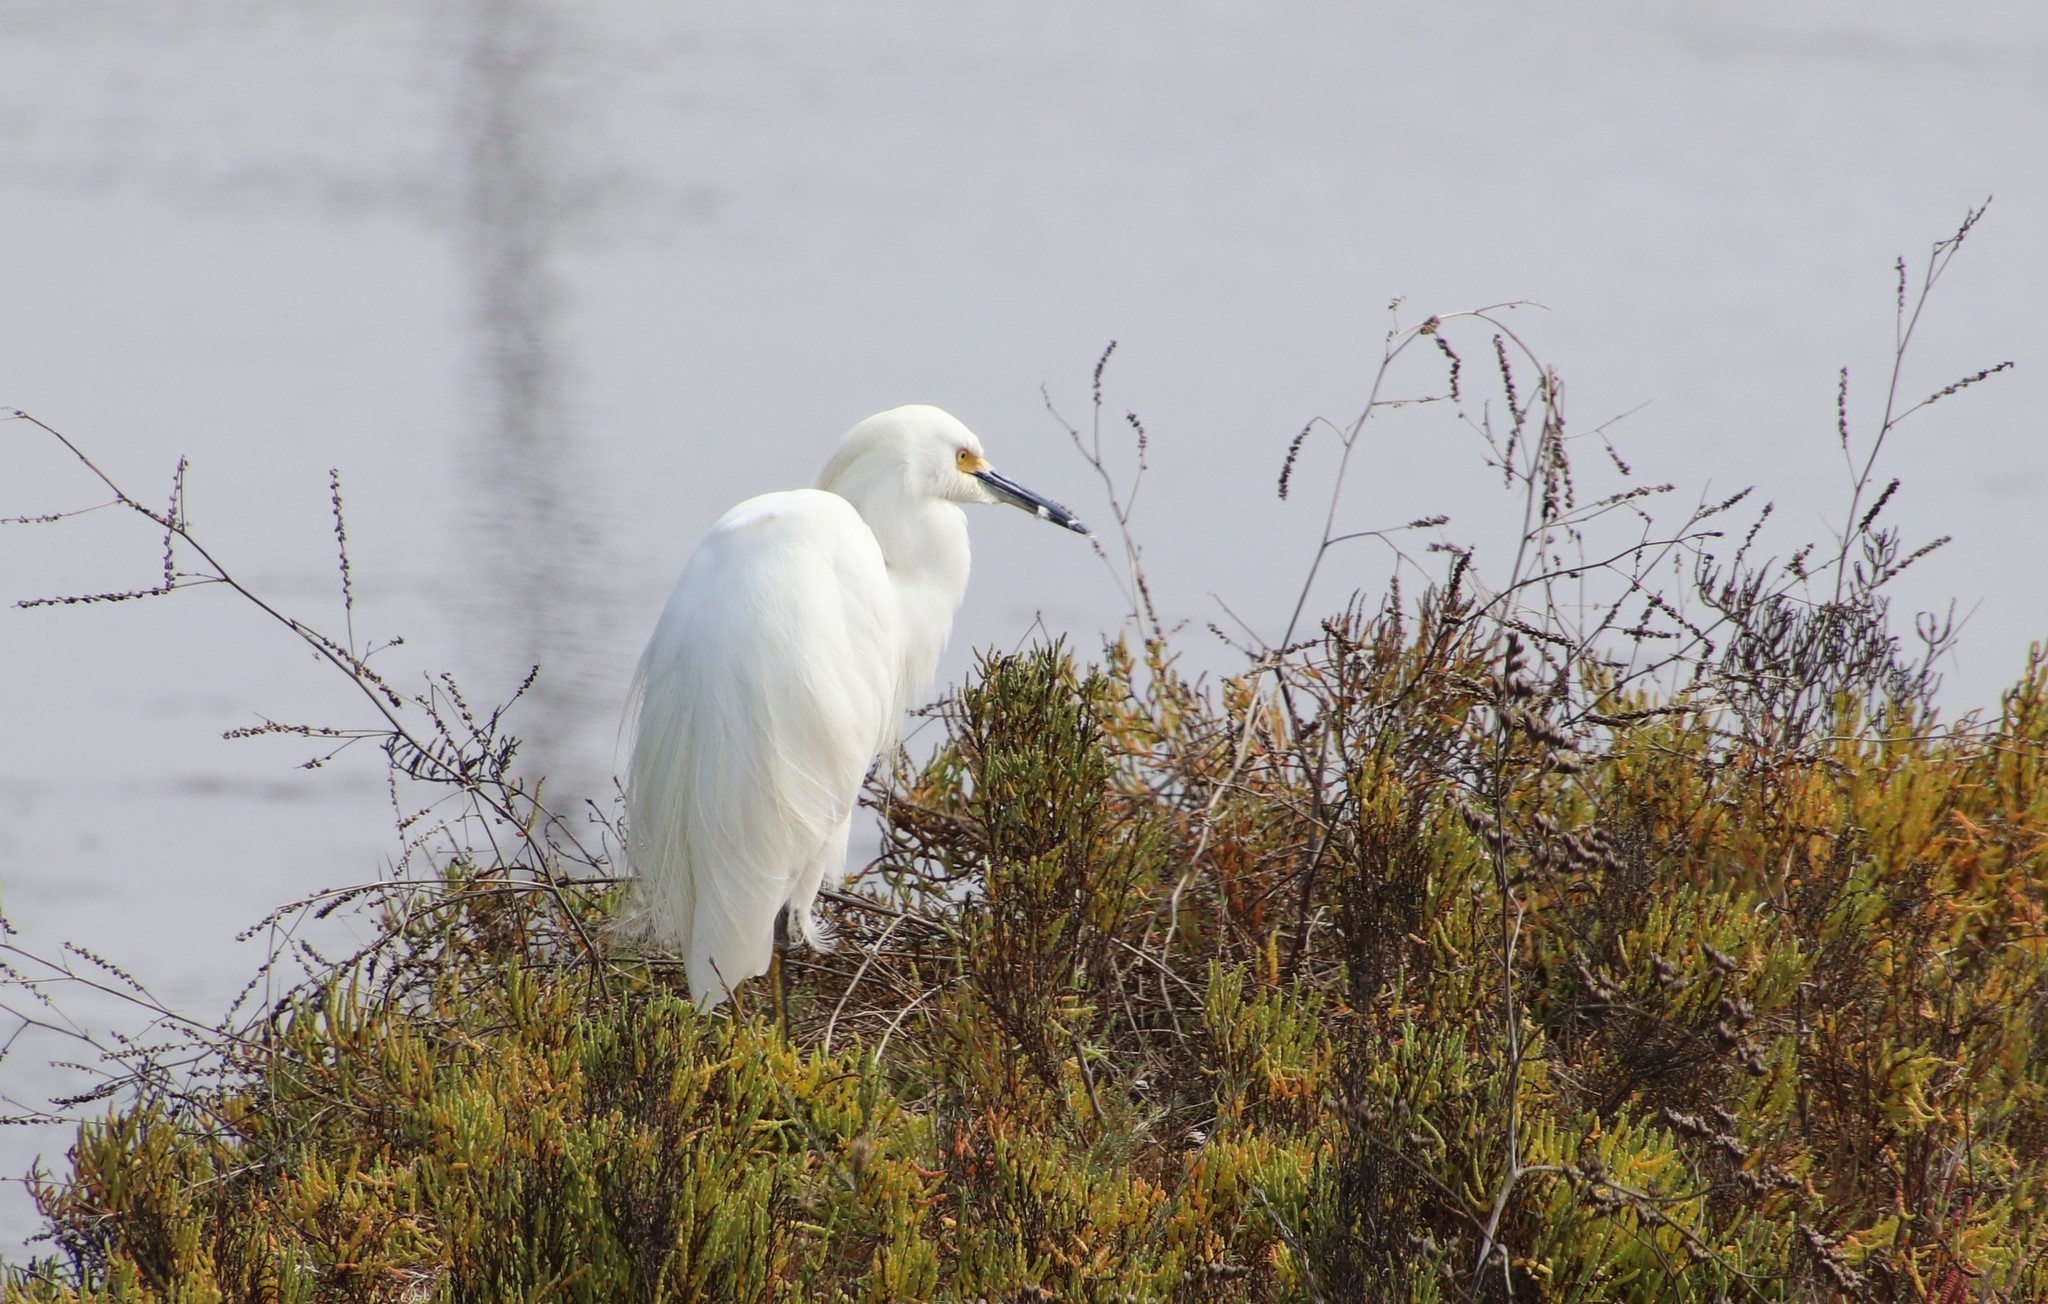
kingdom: Animalia
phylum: Chordata
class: Aves
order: Pelecaniformes
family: Ardeidae
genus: Egretta
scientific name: Egretta thula
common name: Snowy egret
